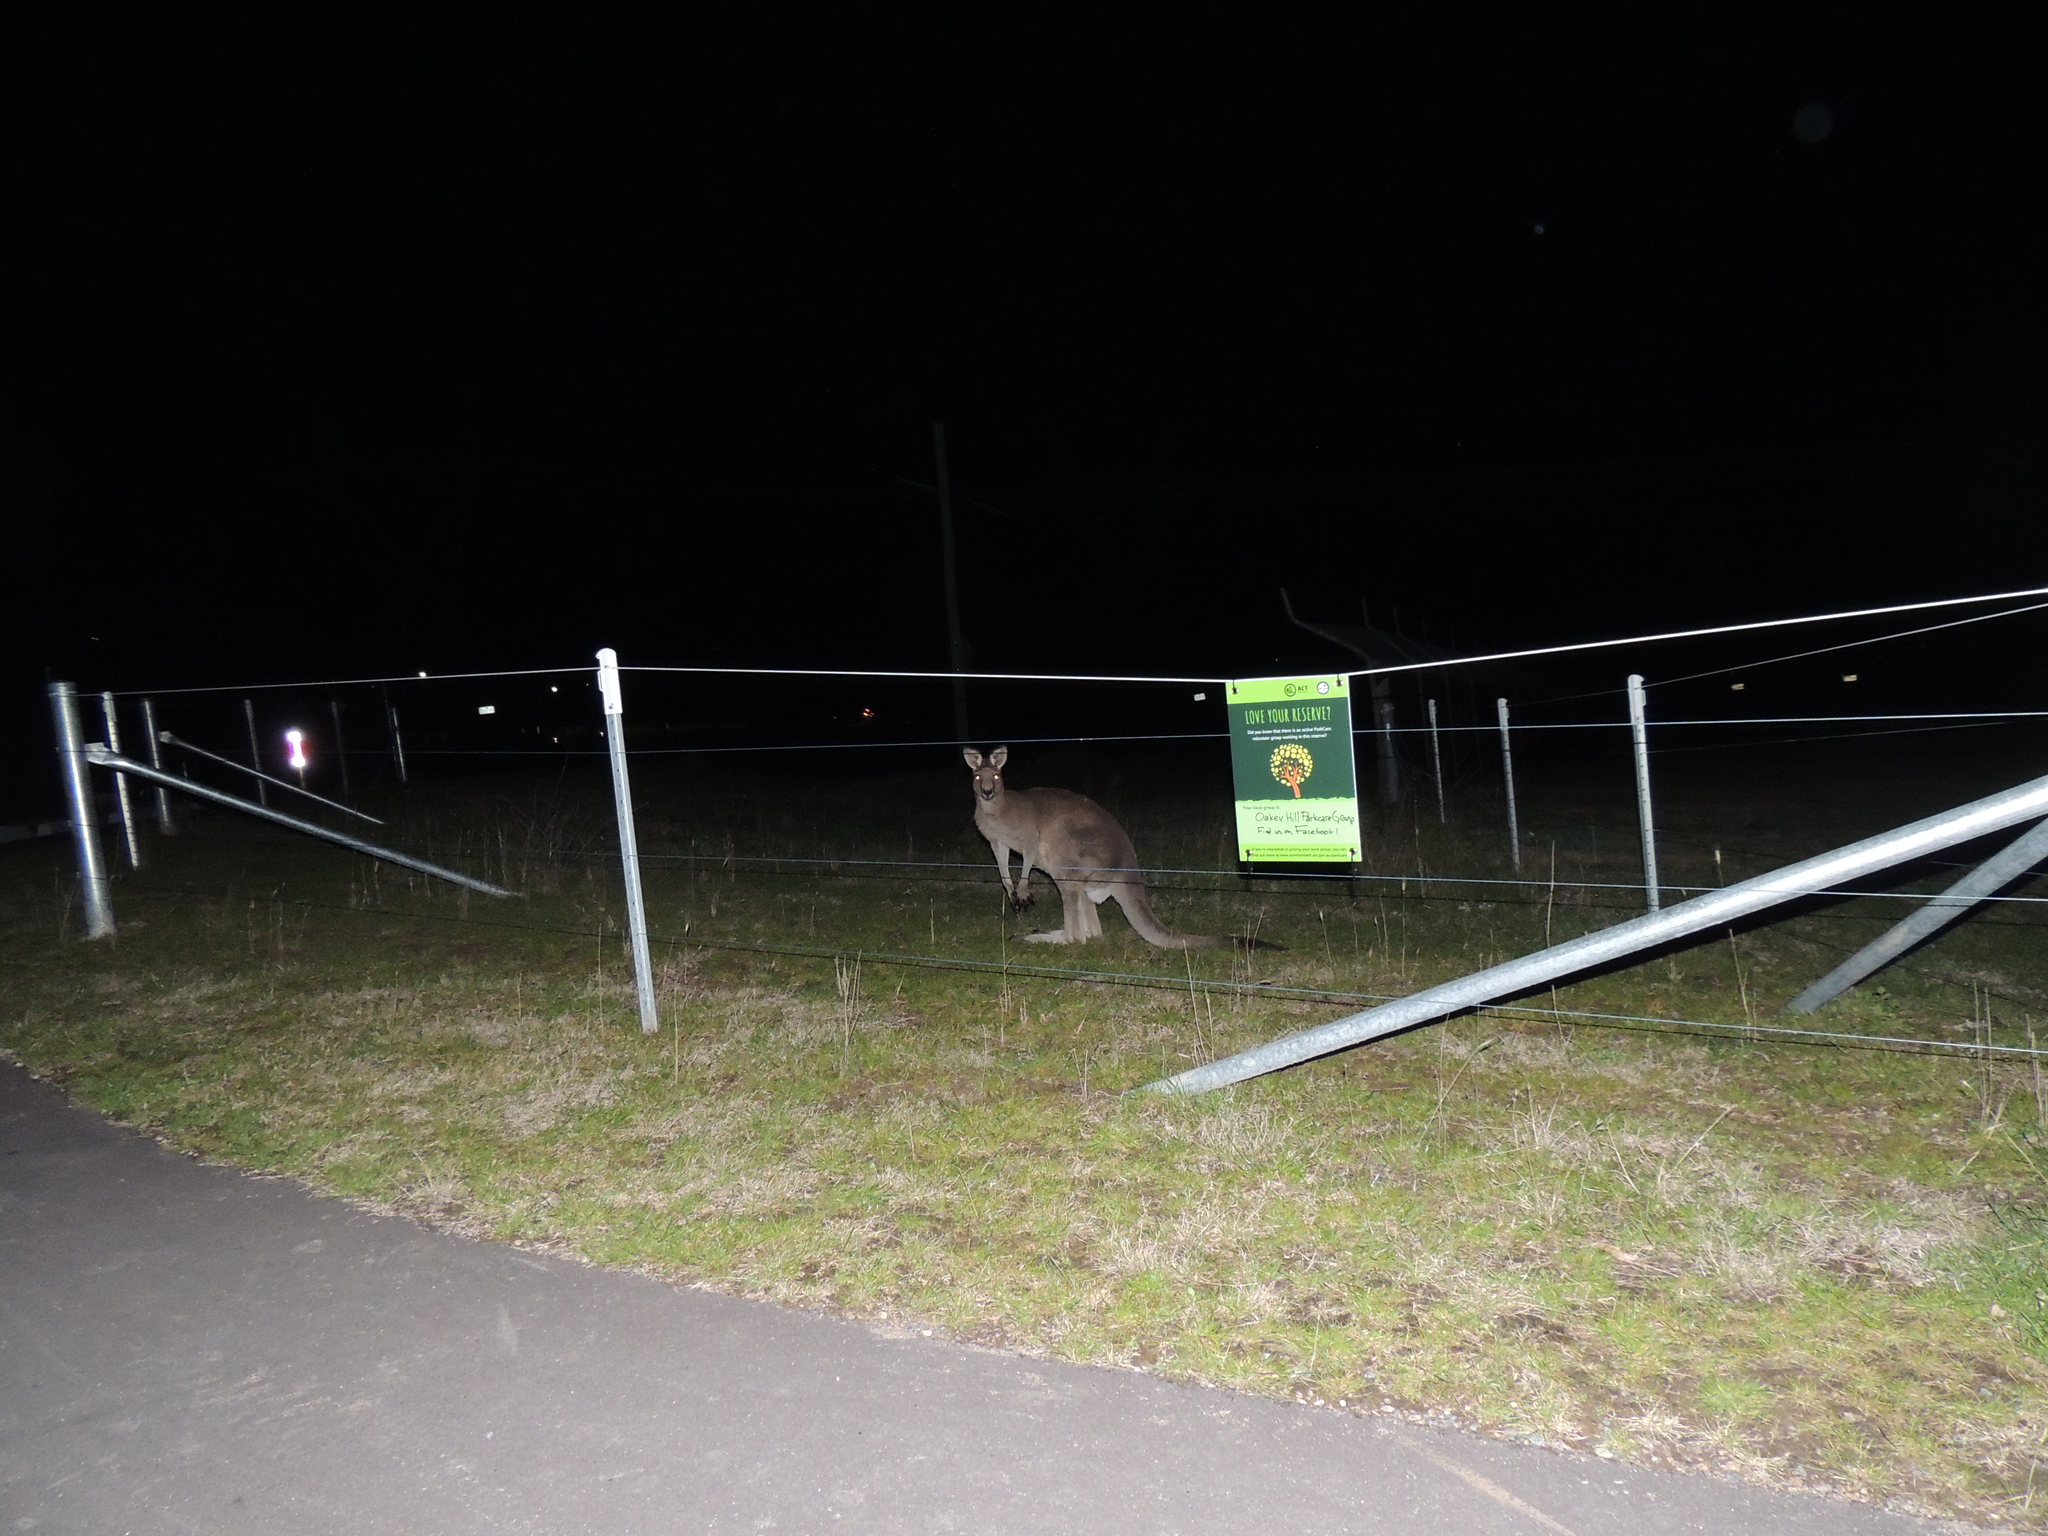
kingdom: Animalia
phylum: Chordata
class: Mammalia
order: Diprotodontia
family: Macropodidae
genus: Macropus
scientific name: Macropus giganteus
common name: Eastern grey kangaroo
